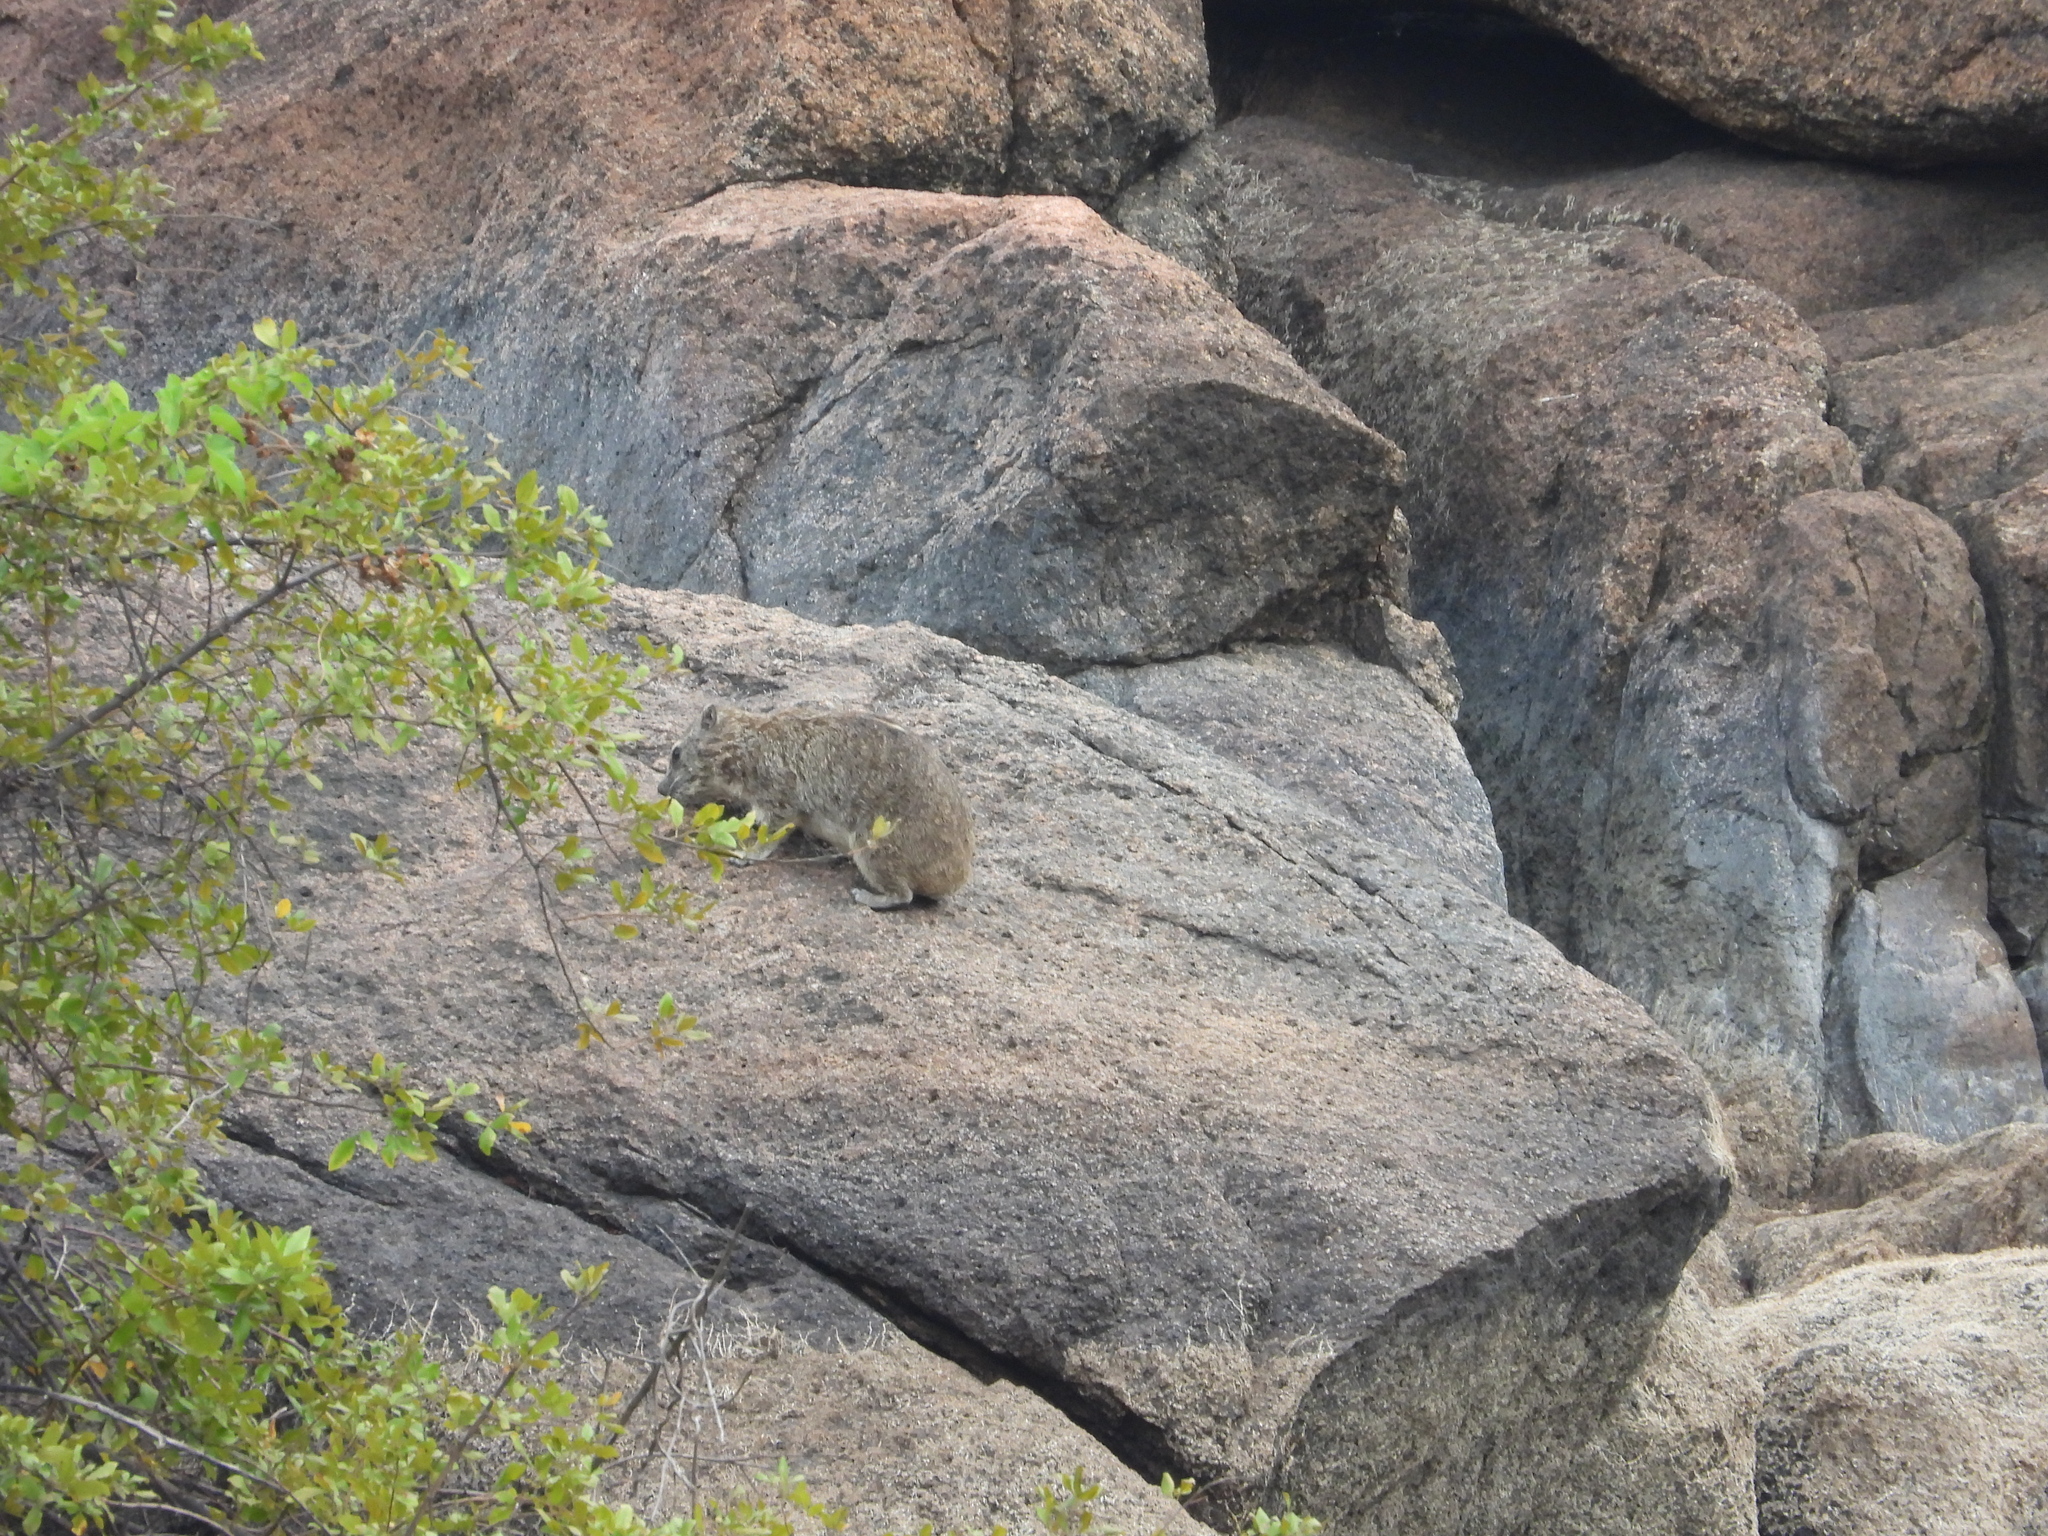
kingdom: Animalia
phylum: Chordata
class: Mammalia
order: Hyracoidea
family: Procaviidae
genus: Procavia
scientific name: Procavia capensis
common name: Rock hyrax
